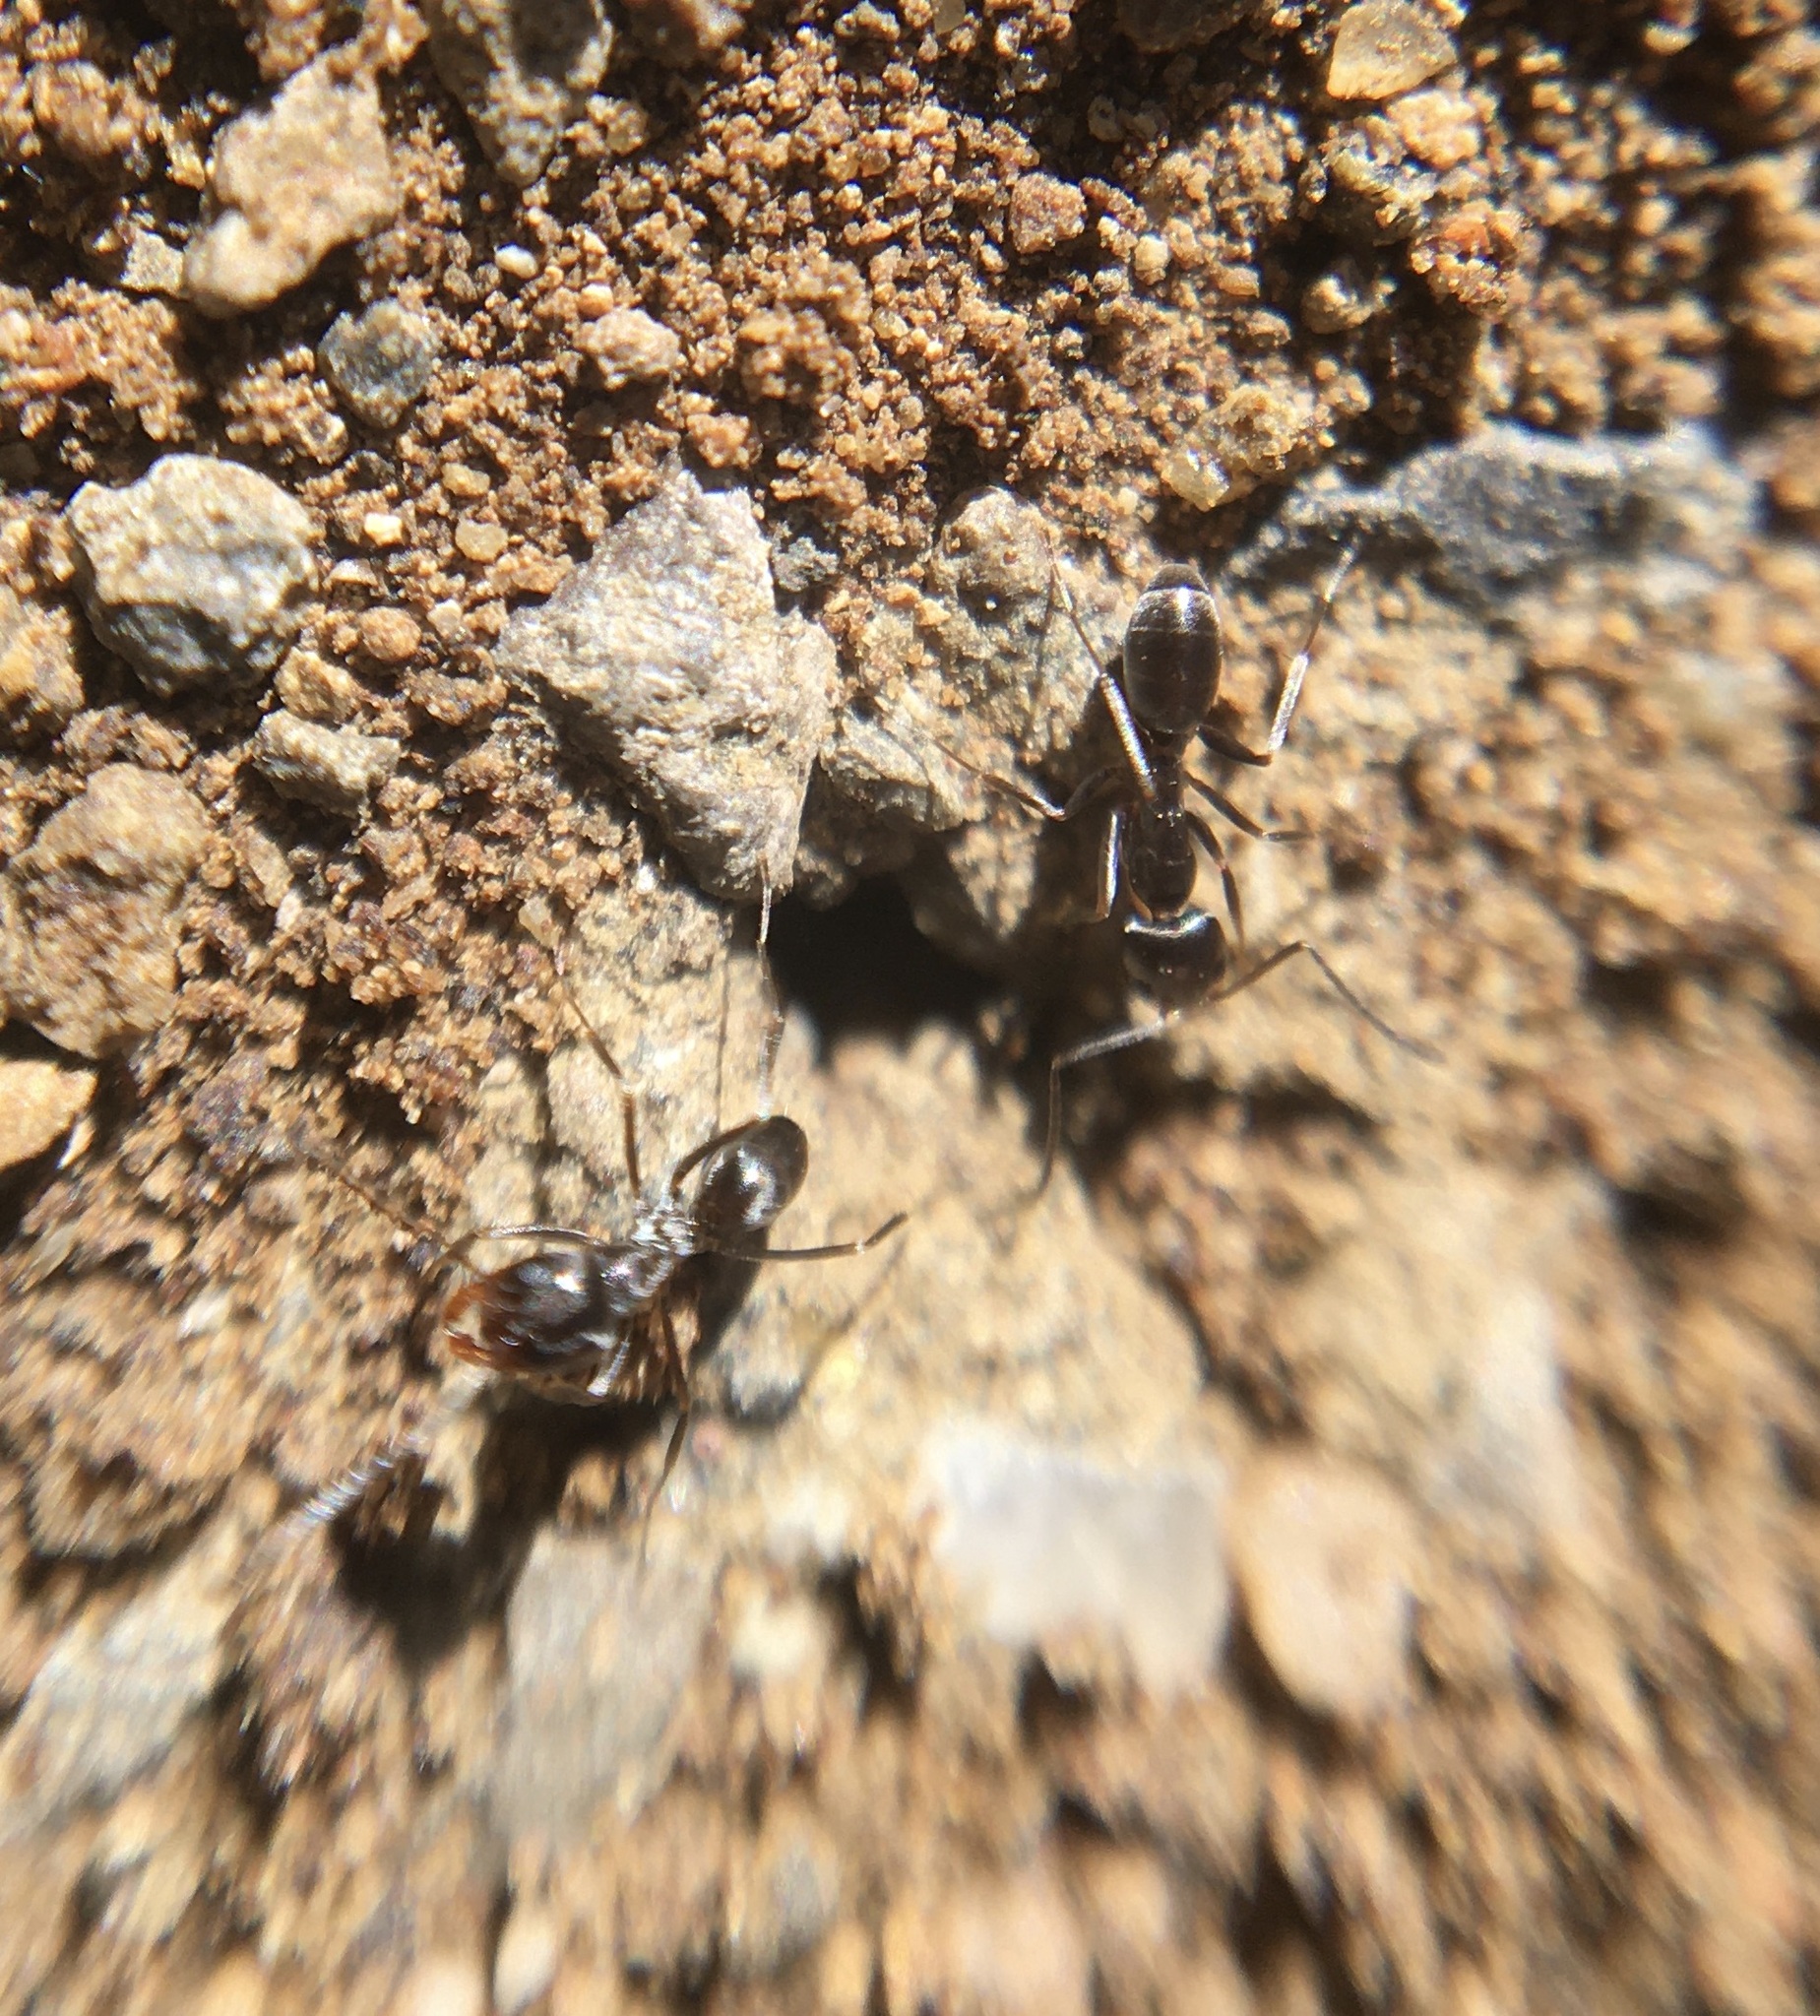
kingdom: Animalia
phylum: Arthropoda
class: Insecta
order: Hymenoptera
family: Formicidae
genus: Dorymyrmex
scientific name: Dorymyrmex insanus
